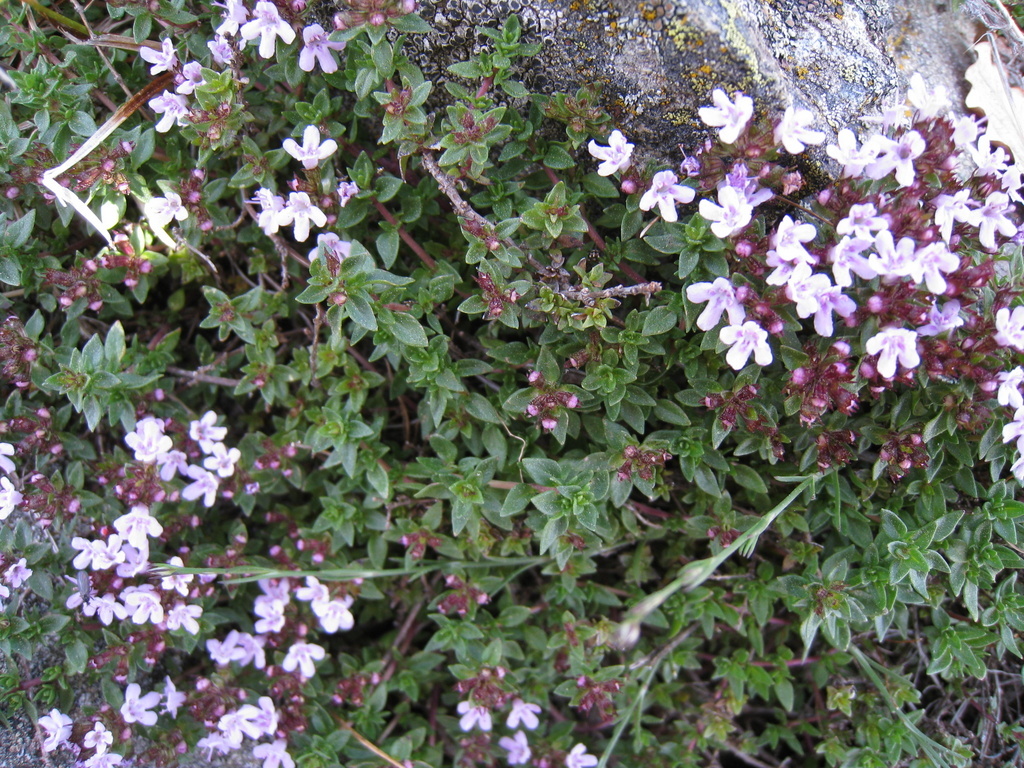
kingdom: Plantae
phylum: Tracheophyta
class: Magnoliopsida
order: Lamiales
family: Lamiaceae
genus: Thymus
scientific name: Thymus herba-barona
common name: Caraway thyme
